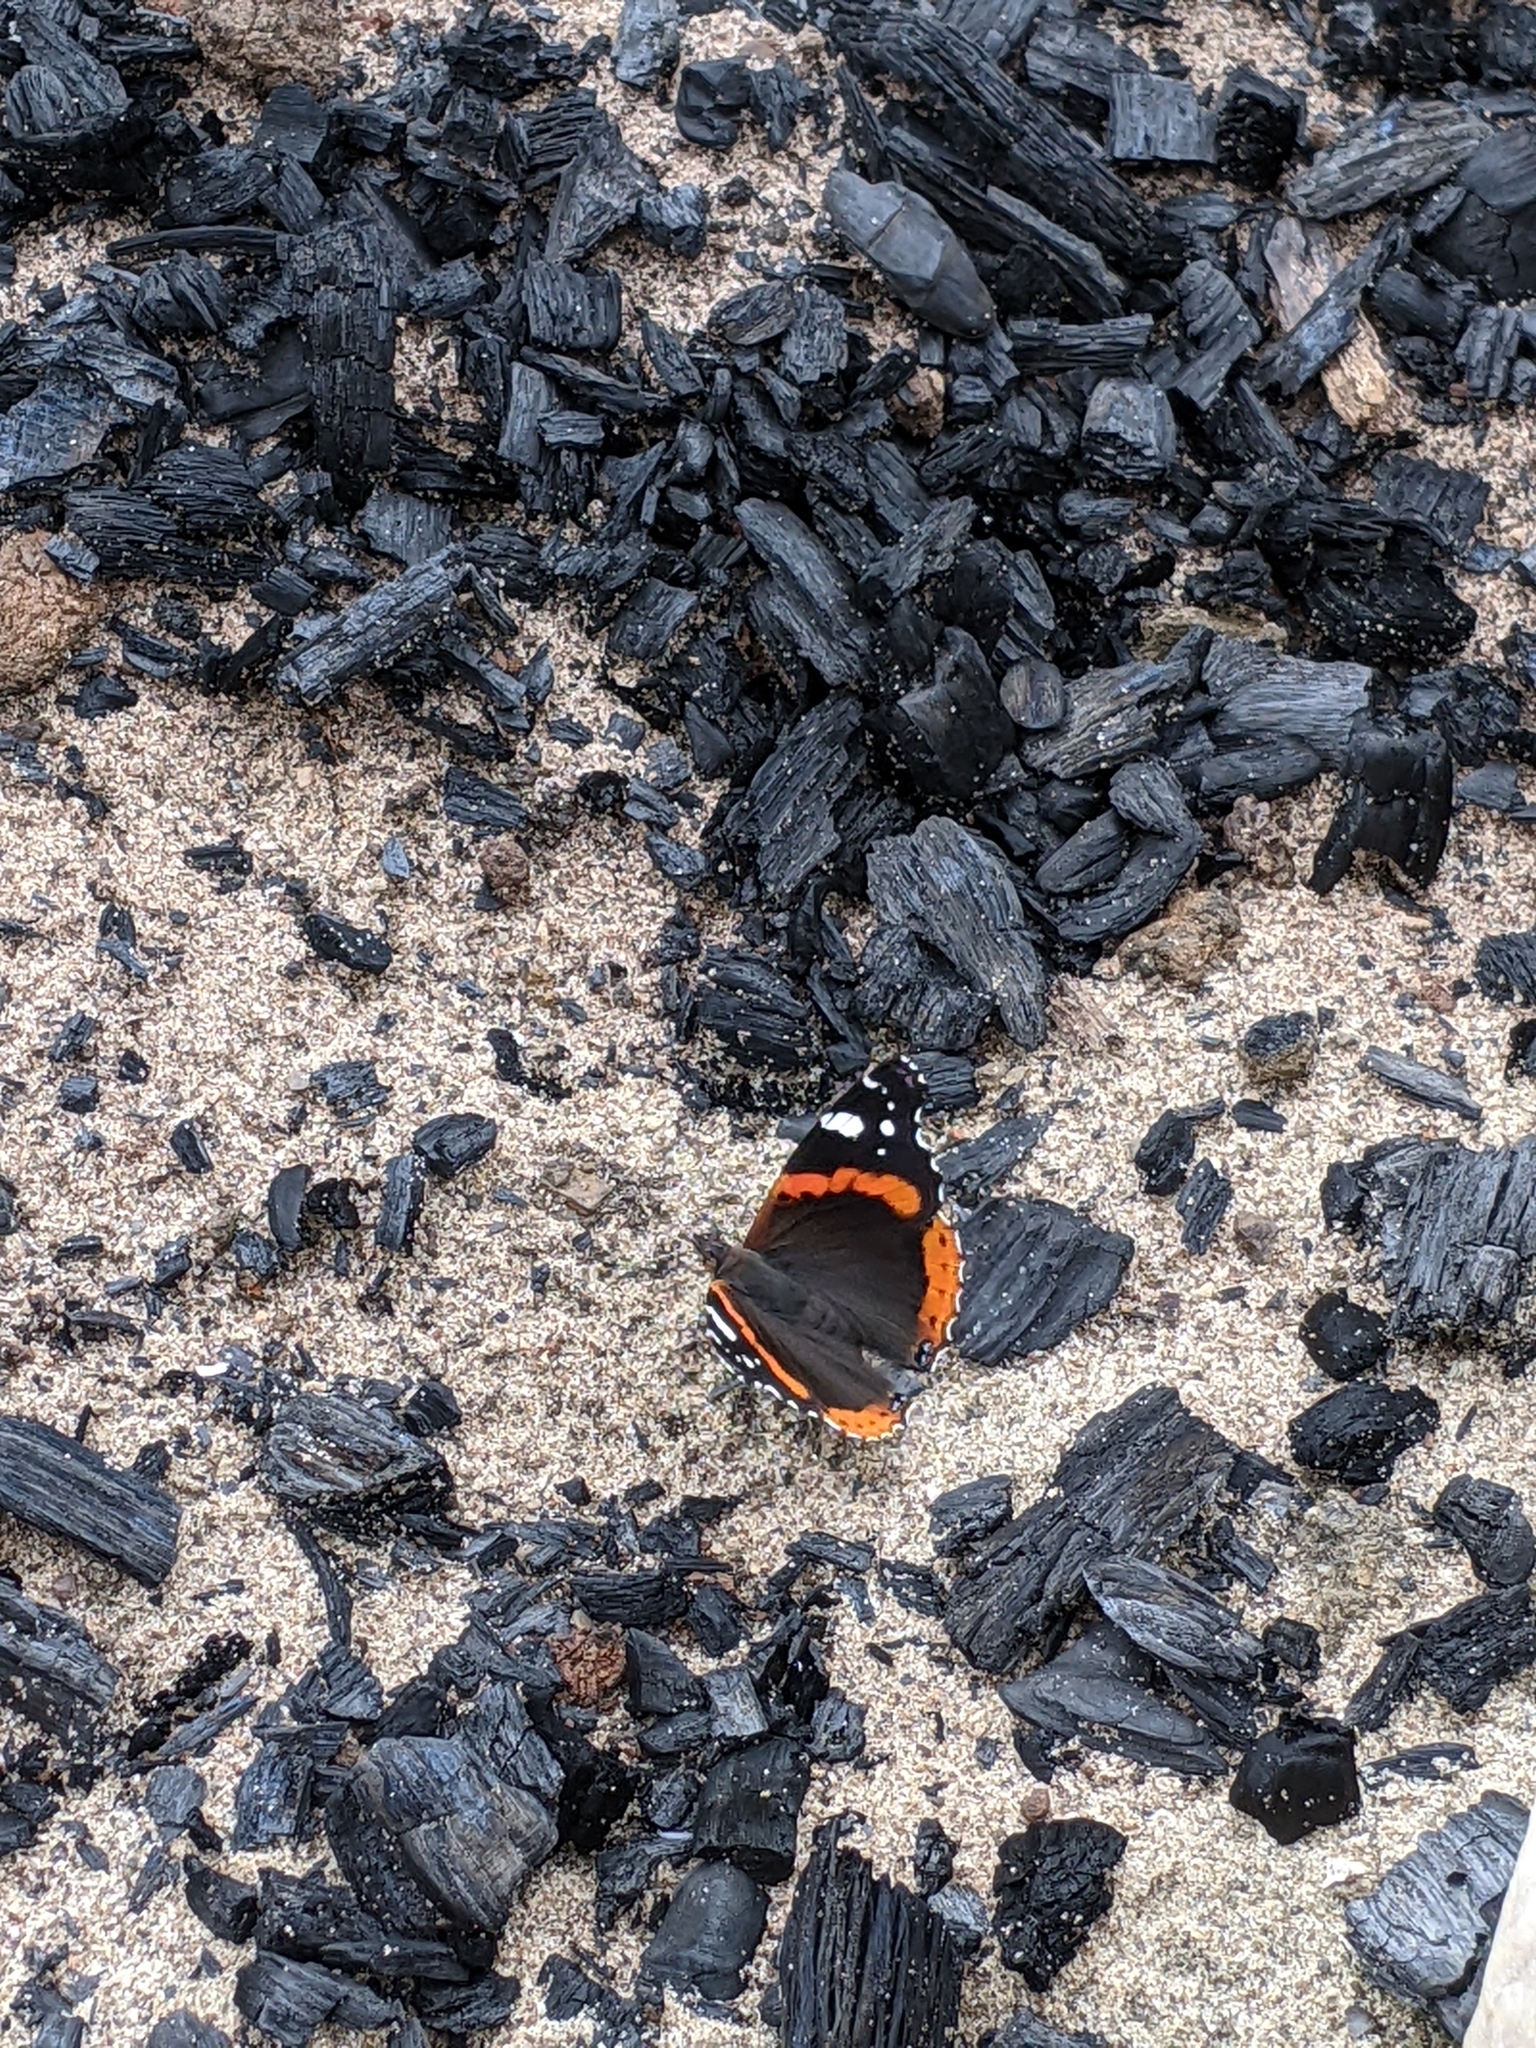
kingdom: Animalia
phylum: Arthropoda
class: Insecta
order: Lepidoptera
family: Nymphalidae
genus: Vanessa
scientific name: Vanessa atalanta
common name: Red admiral
